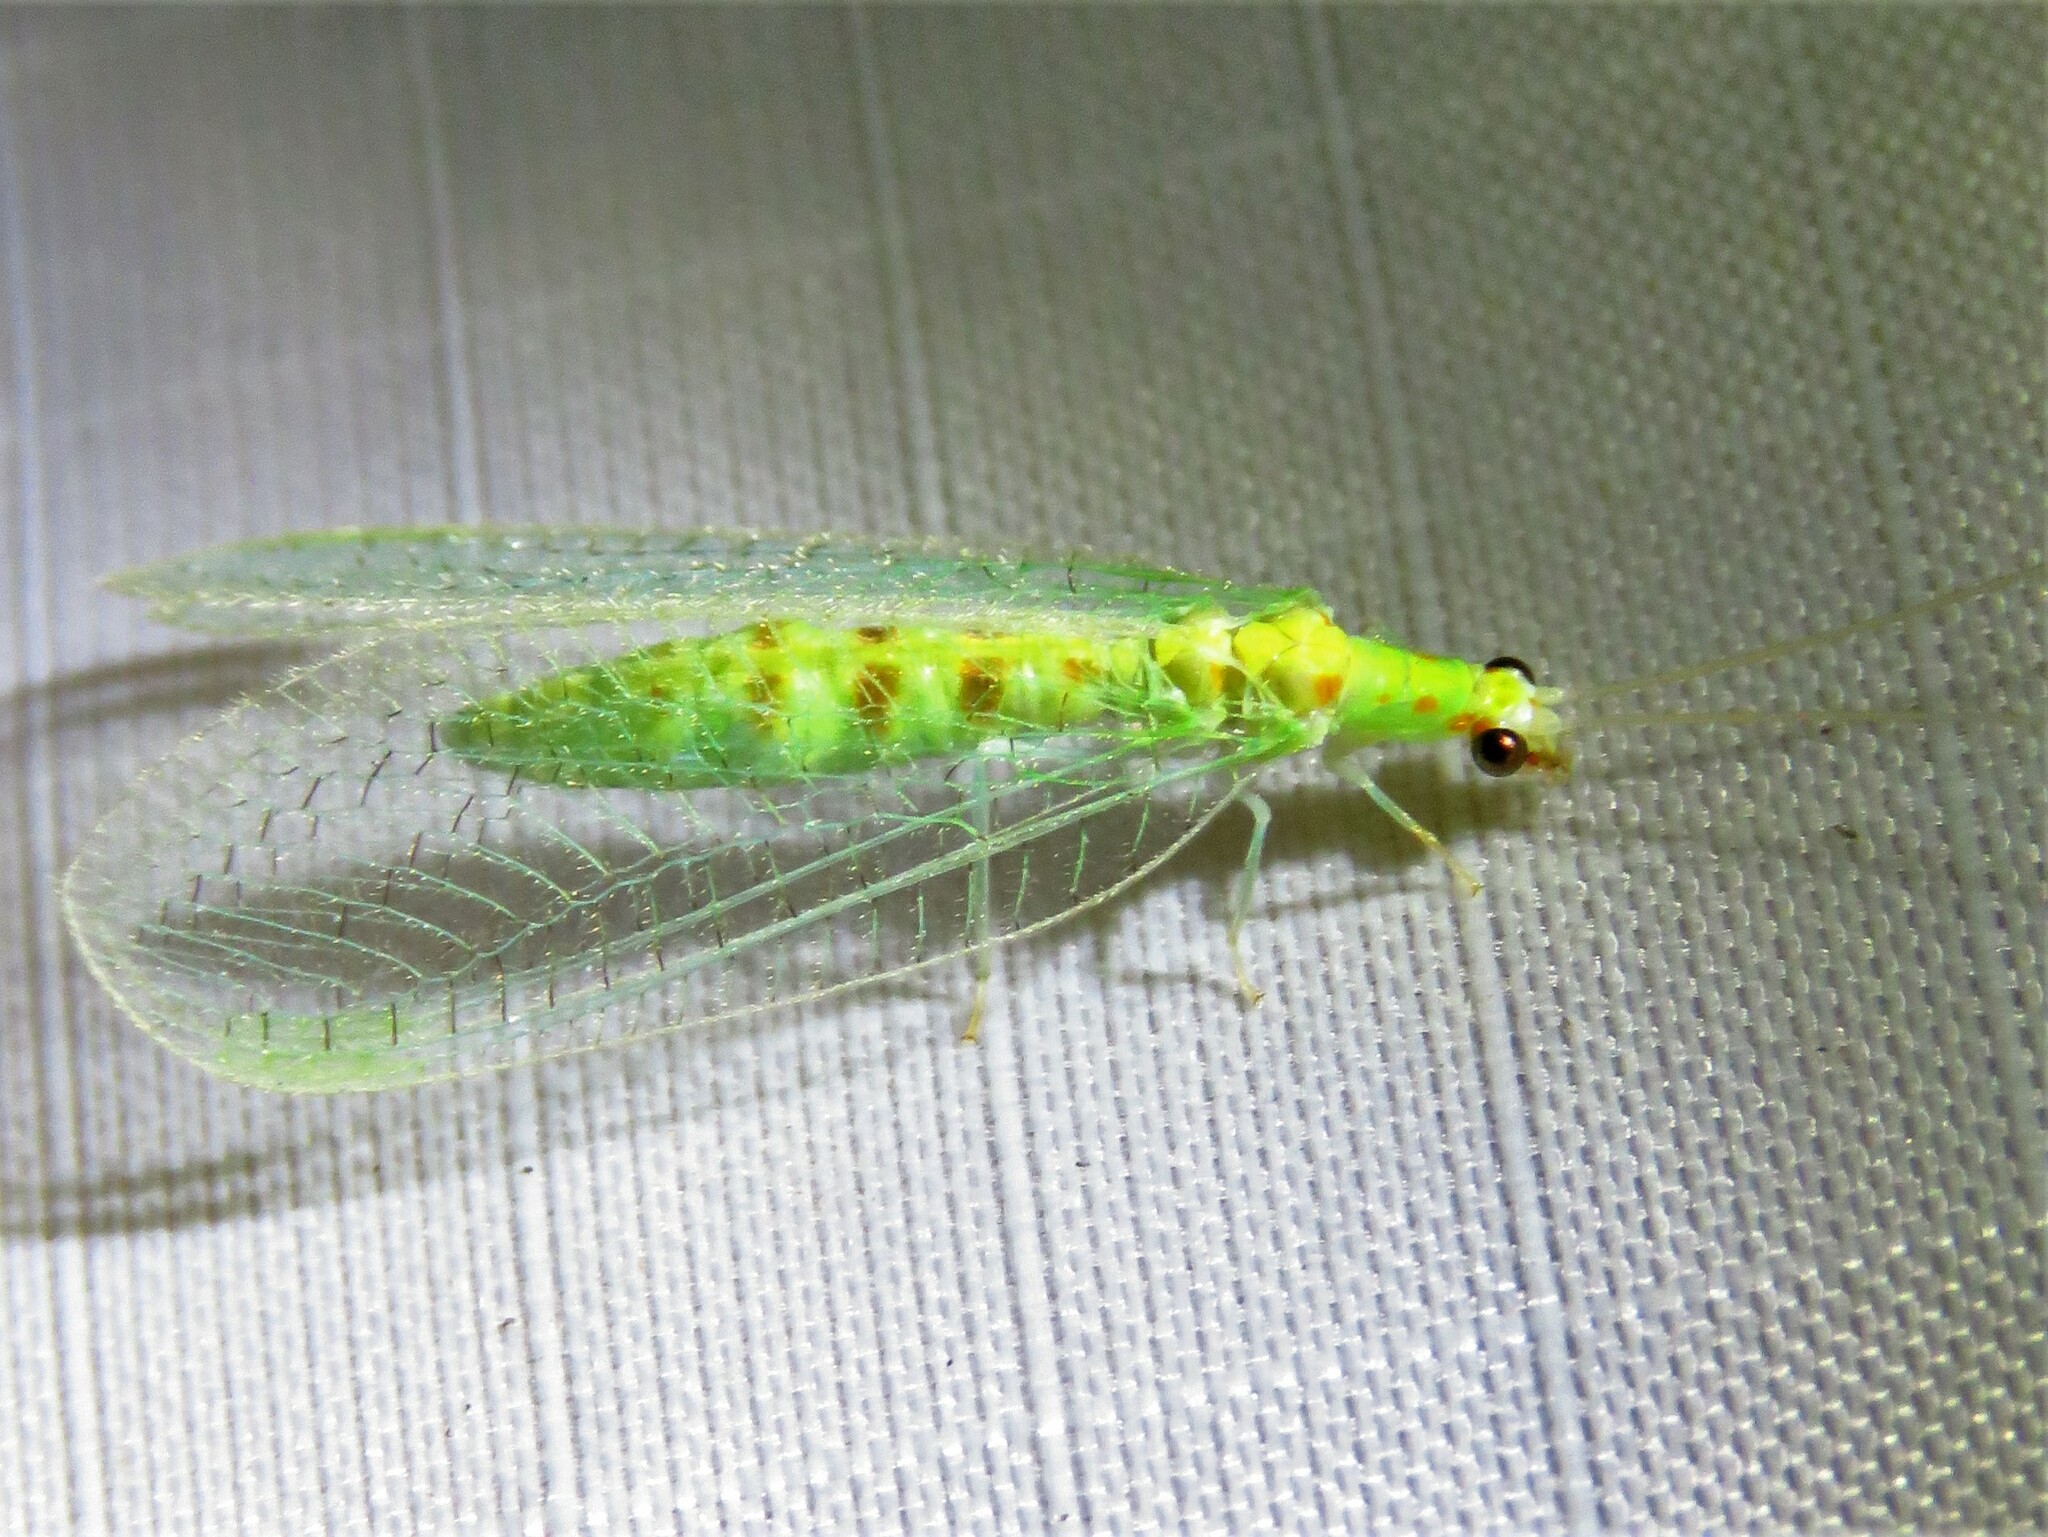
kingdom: Animalia
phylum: Arthropoda
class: Insecta
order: Neuroptera
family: Chrysopidae
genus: Chrysopa
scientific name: Chrysopa quadripunctata
